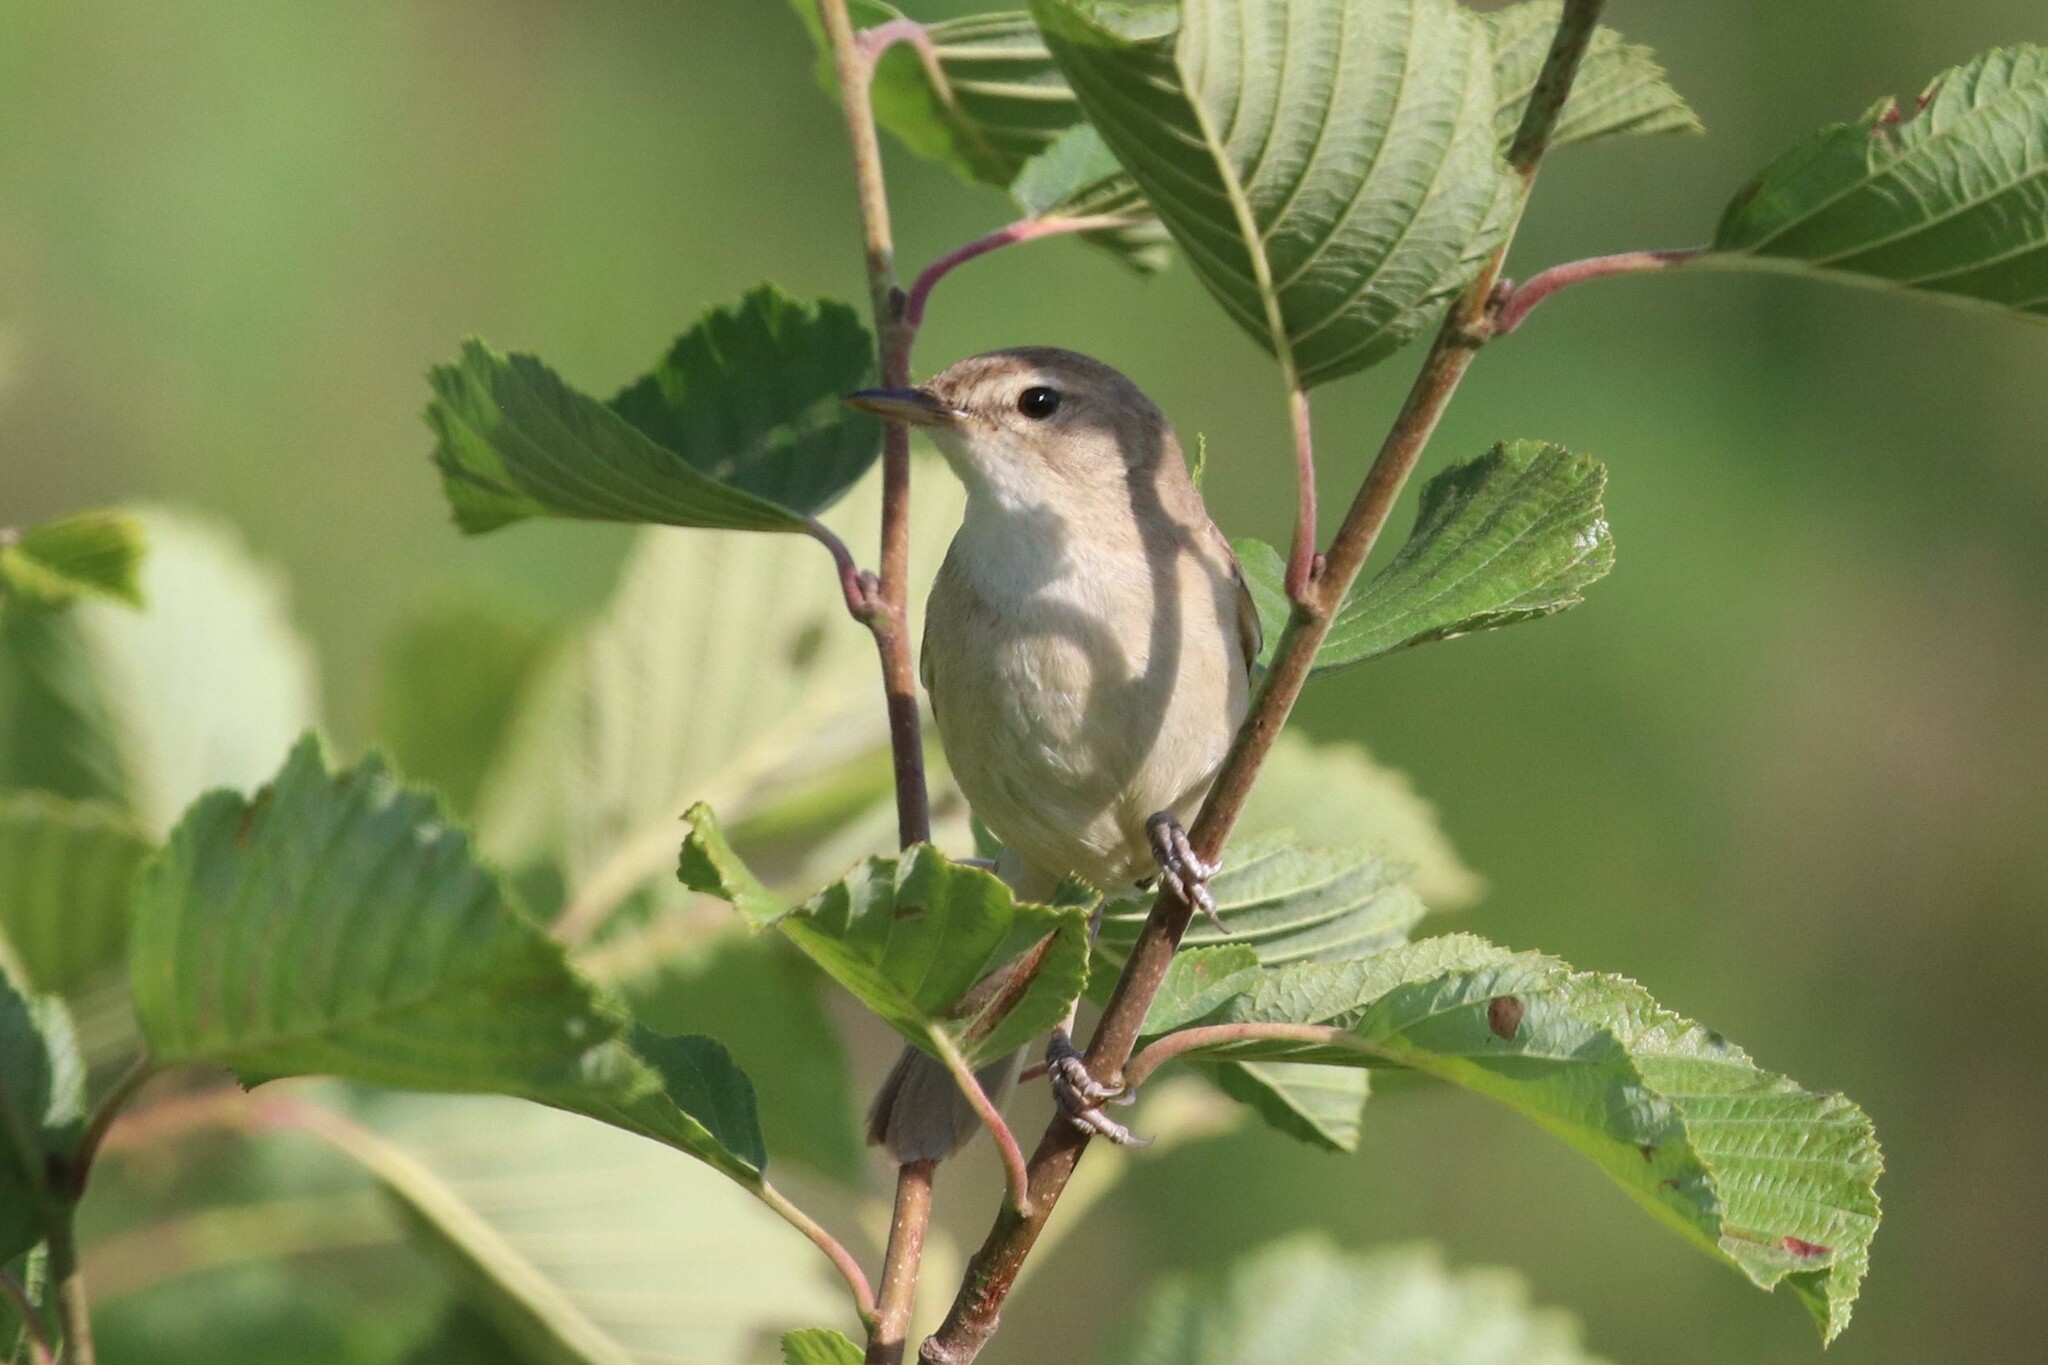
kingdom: Animalia
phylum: Chordata
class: Aves
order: Passeriformes
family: Acrocephalidae
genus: Iduna
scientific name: Iduna caligata
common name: Booted warbler
